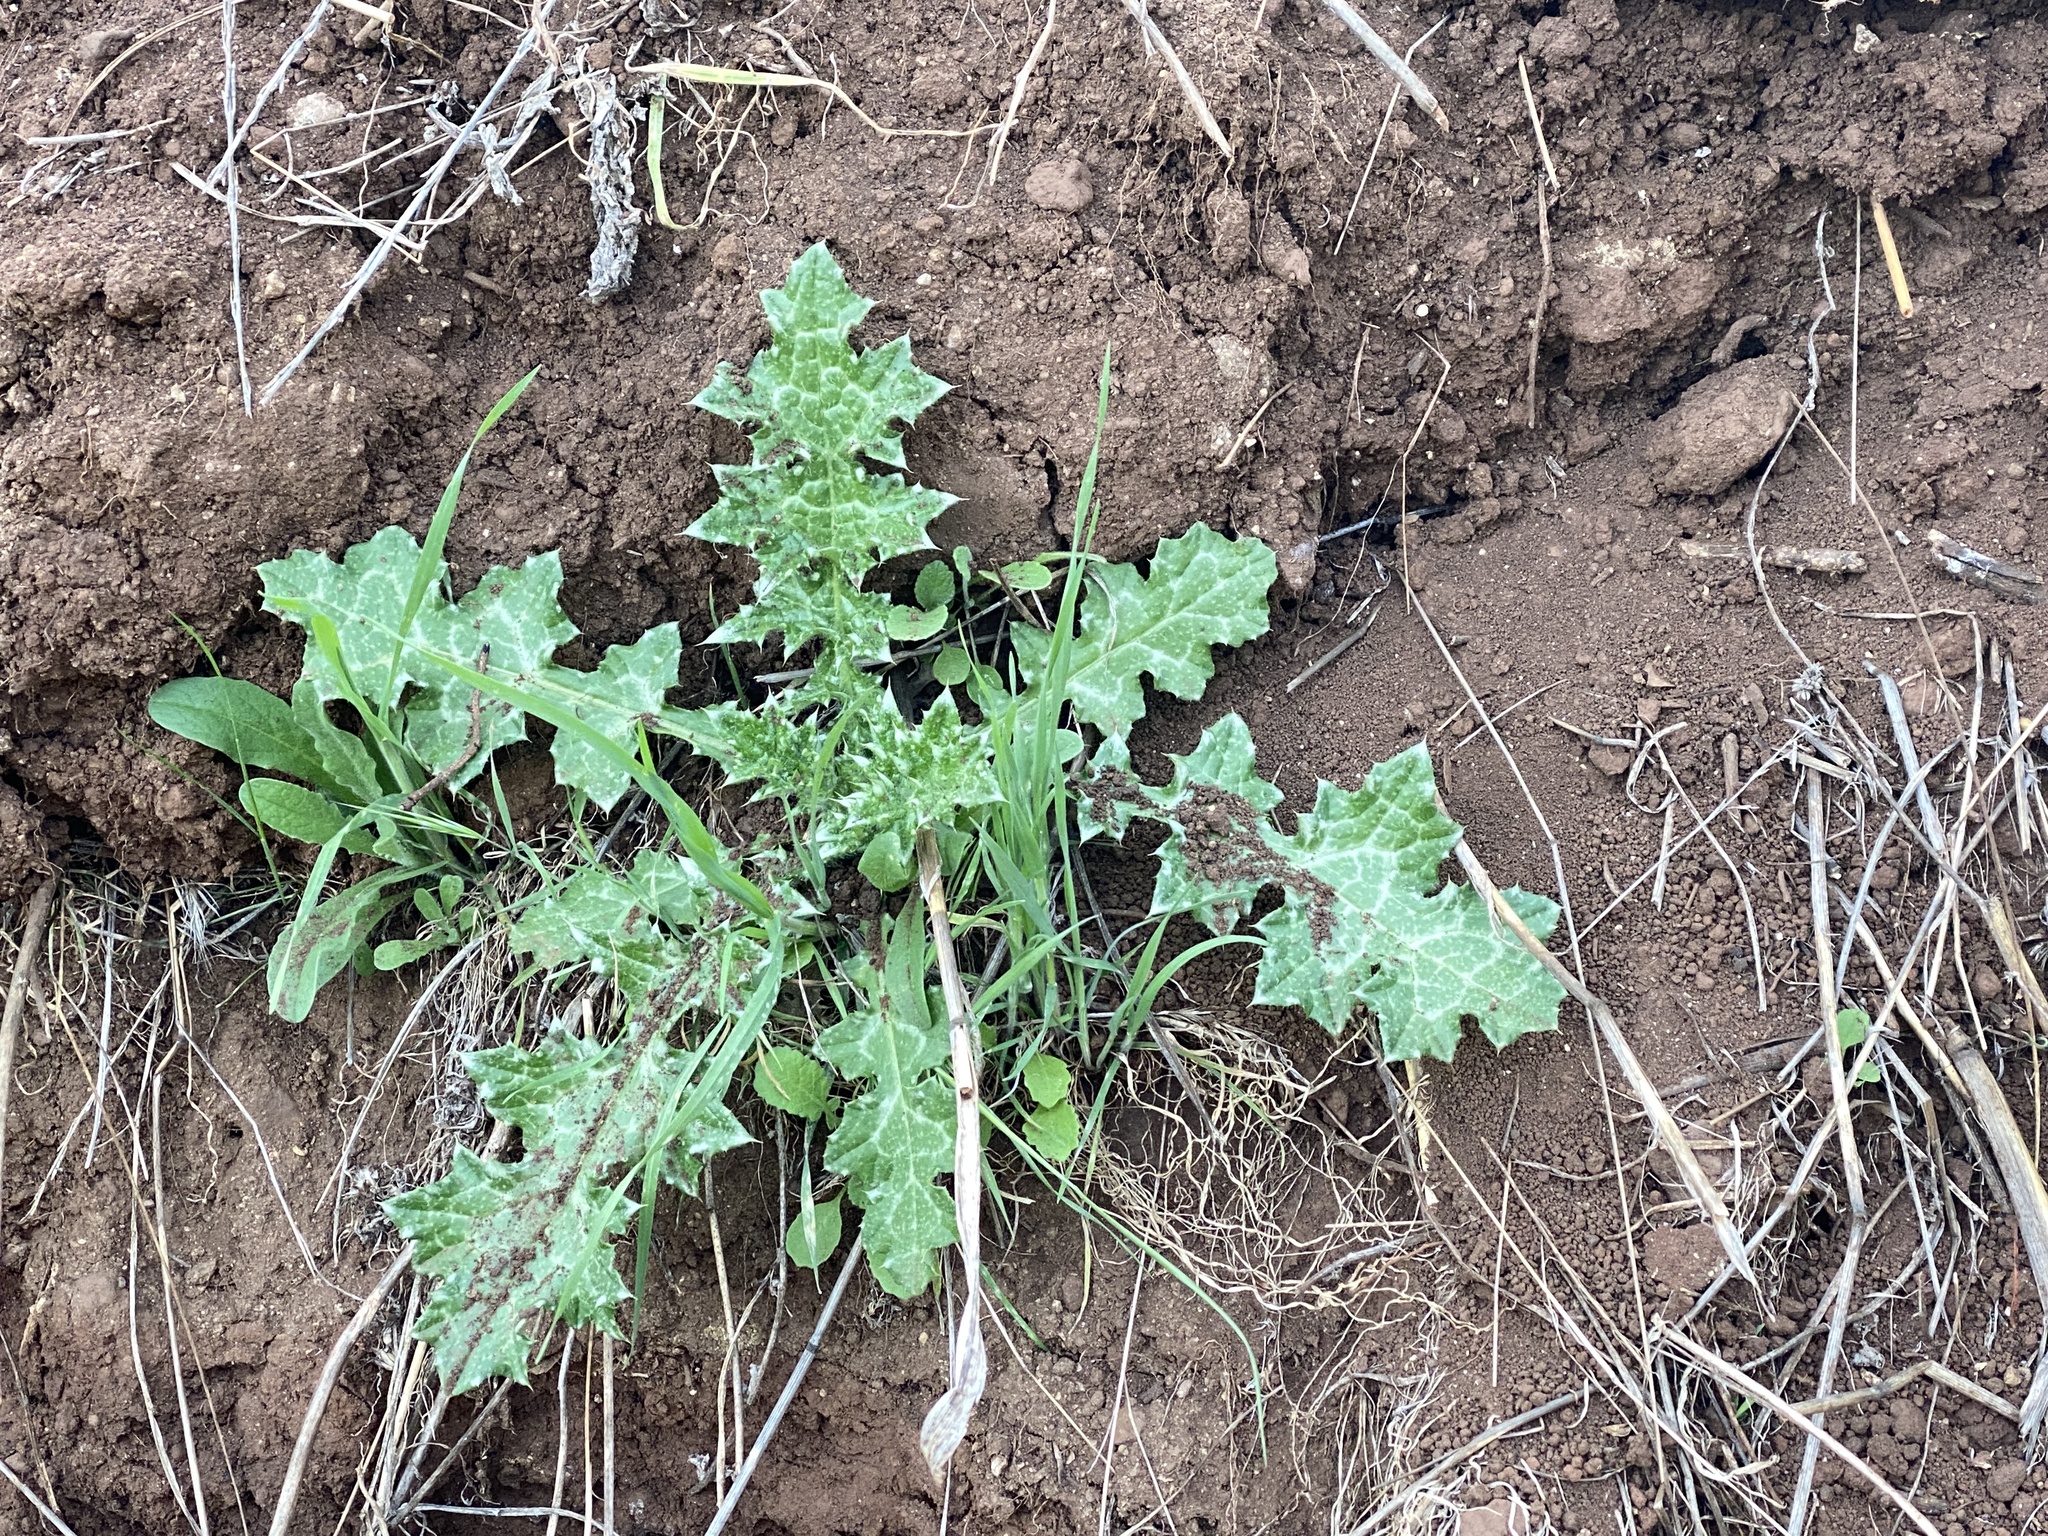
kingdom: Plantae
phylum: Tracheophyta
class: Magnoliopsida
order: Asterales
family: Asteraceae
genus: Carduus
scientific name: Carduus pycnocephalus
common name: Plymouth thistle
